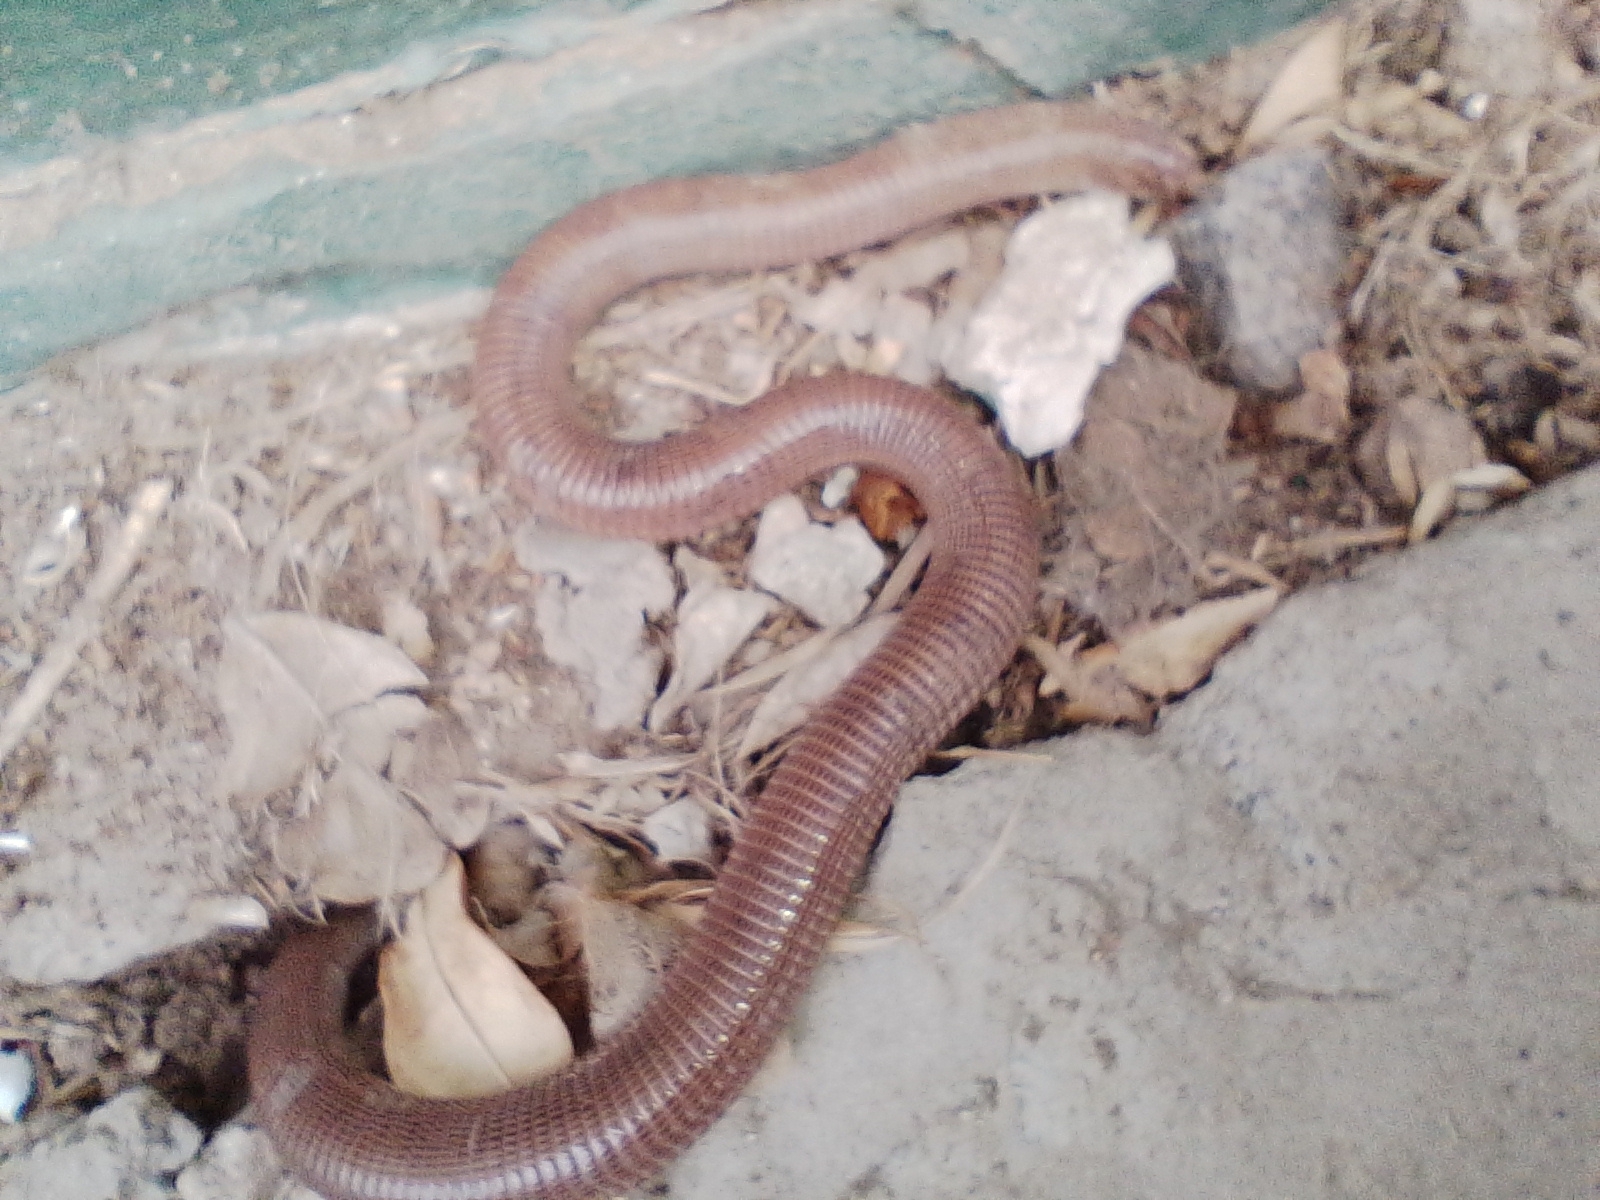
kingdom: Animalia
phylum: Chordata
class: Squamata
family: Amphisbaenidae
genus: Amphisbaena
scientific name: Amphisbaena darwinii
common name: Darwin's ringed worm lizard
